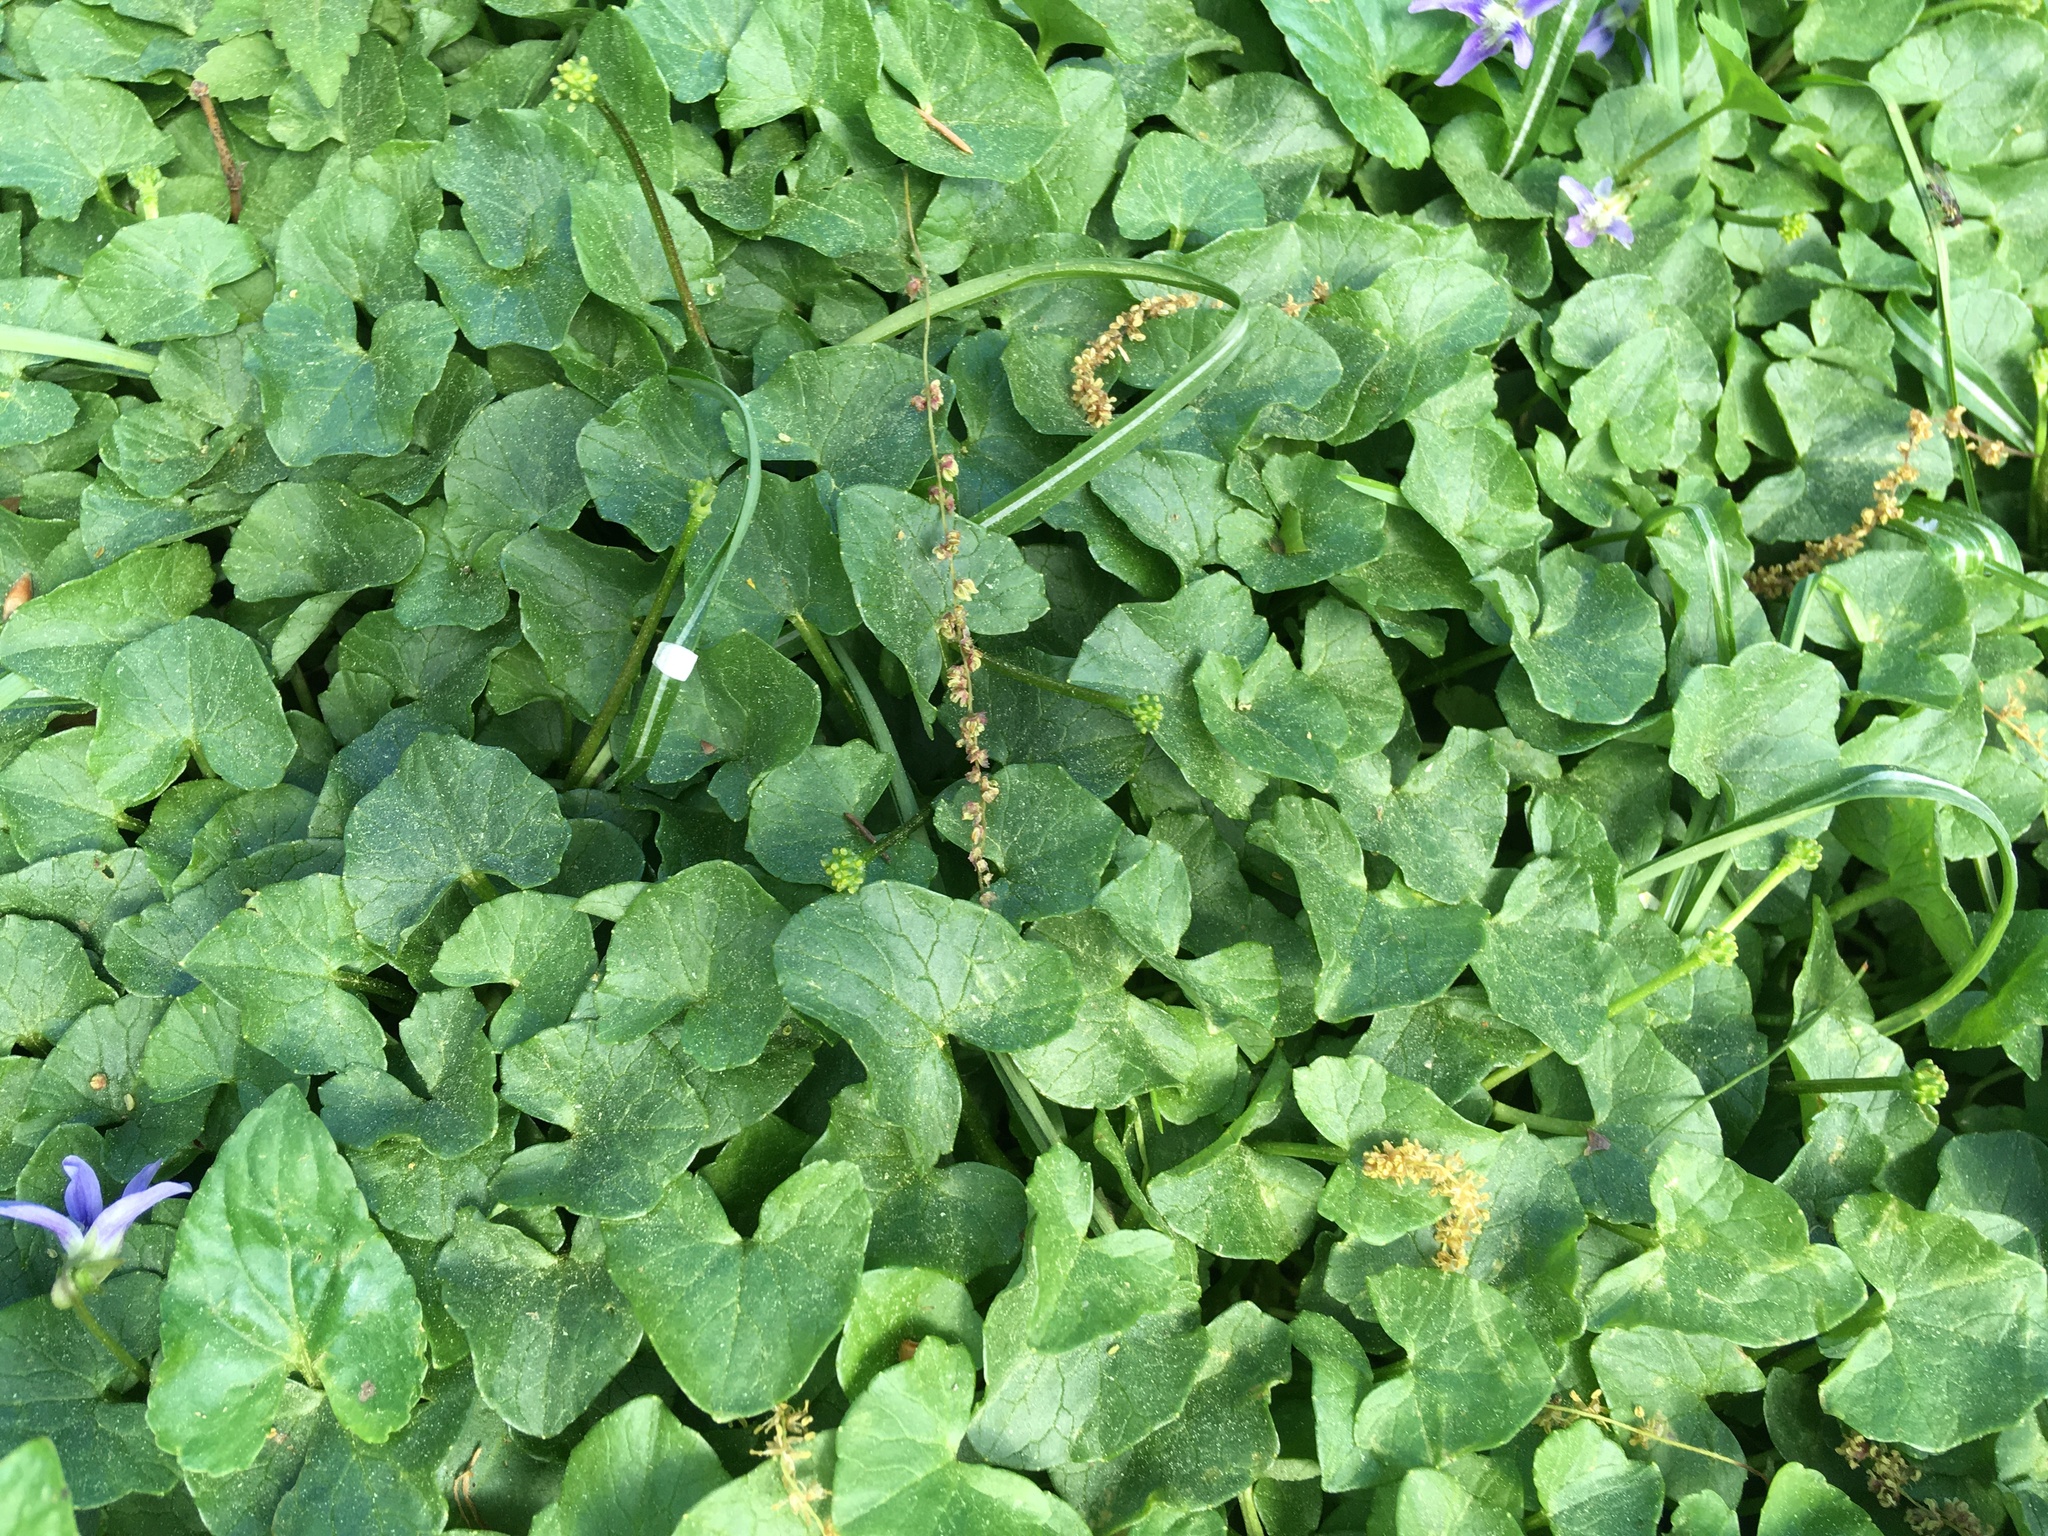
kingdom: Plantae
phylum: Tracheophyta
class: Magnoliopsida
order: Ranunculales
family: Ranunculaceae
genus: Ficaria
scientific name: Ficaria verna
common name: Lesser celandine
